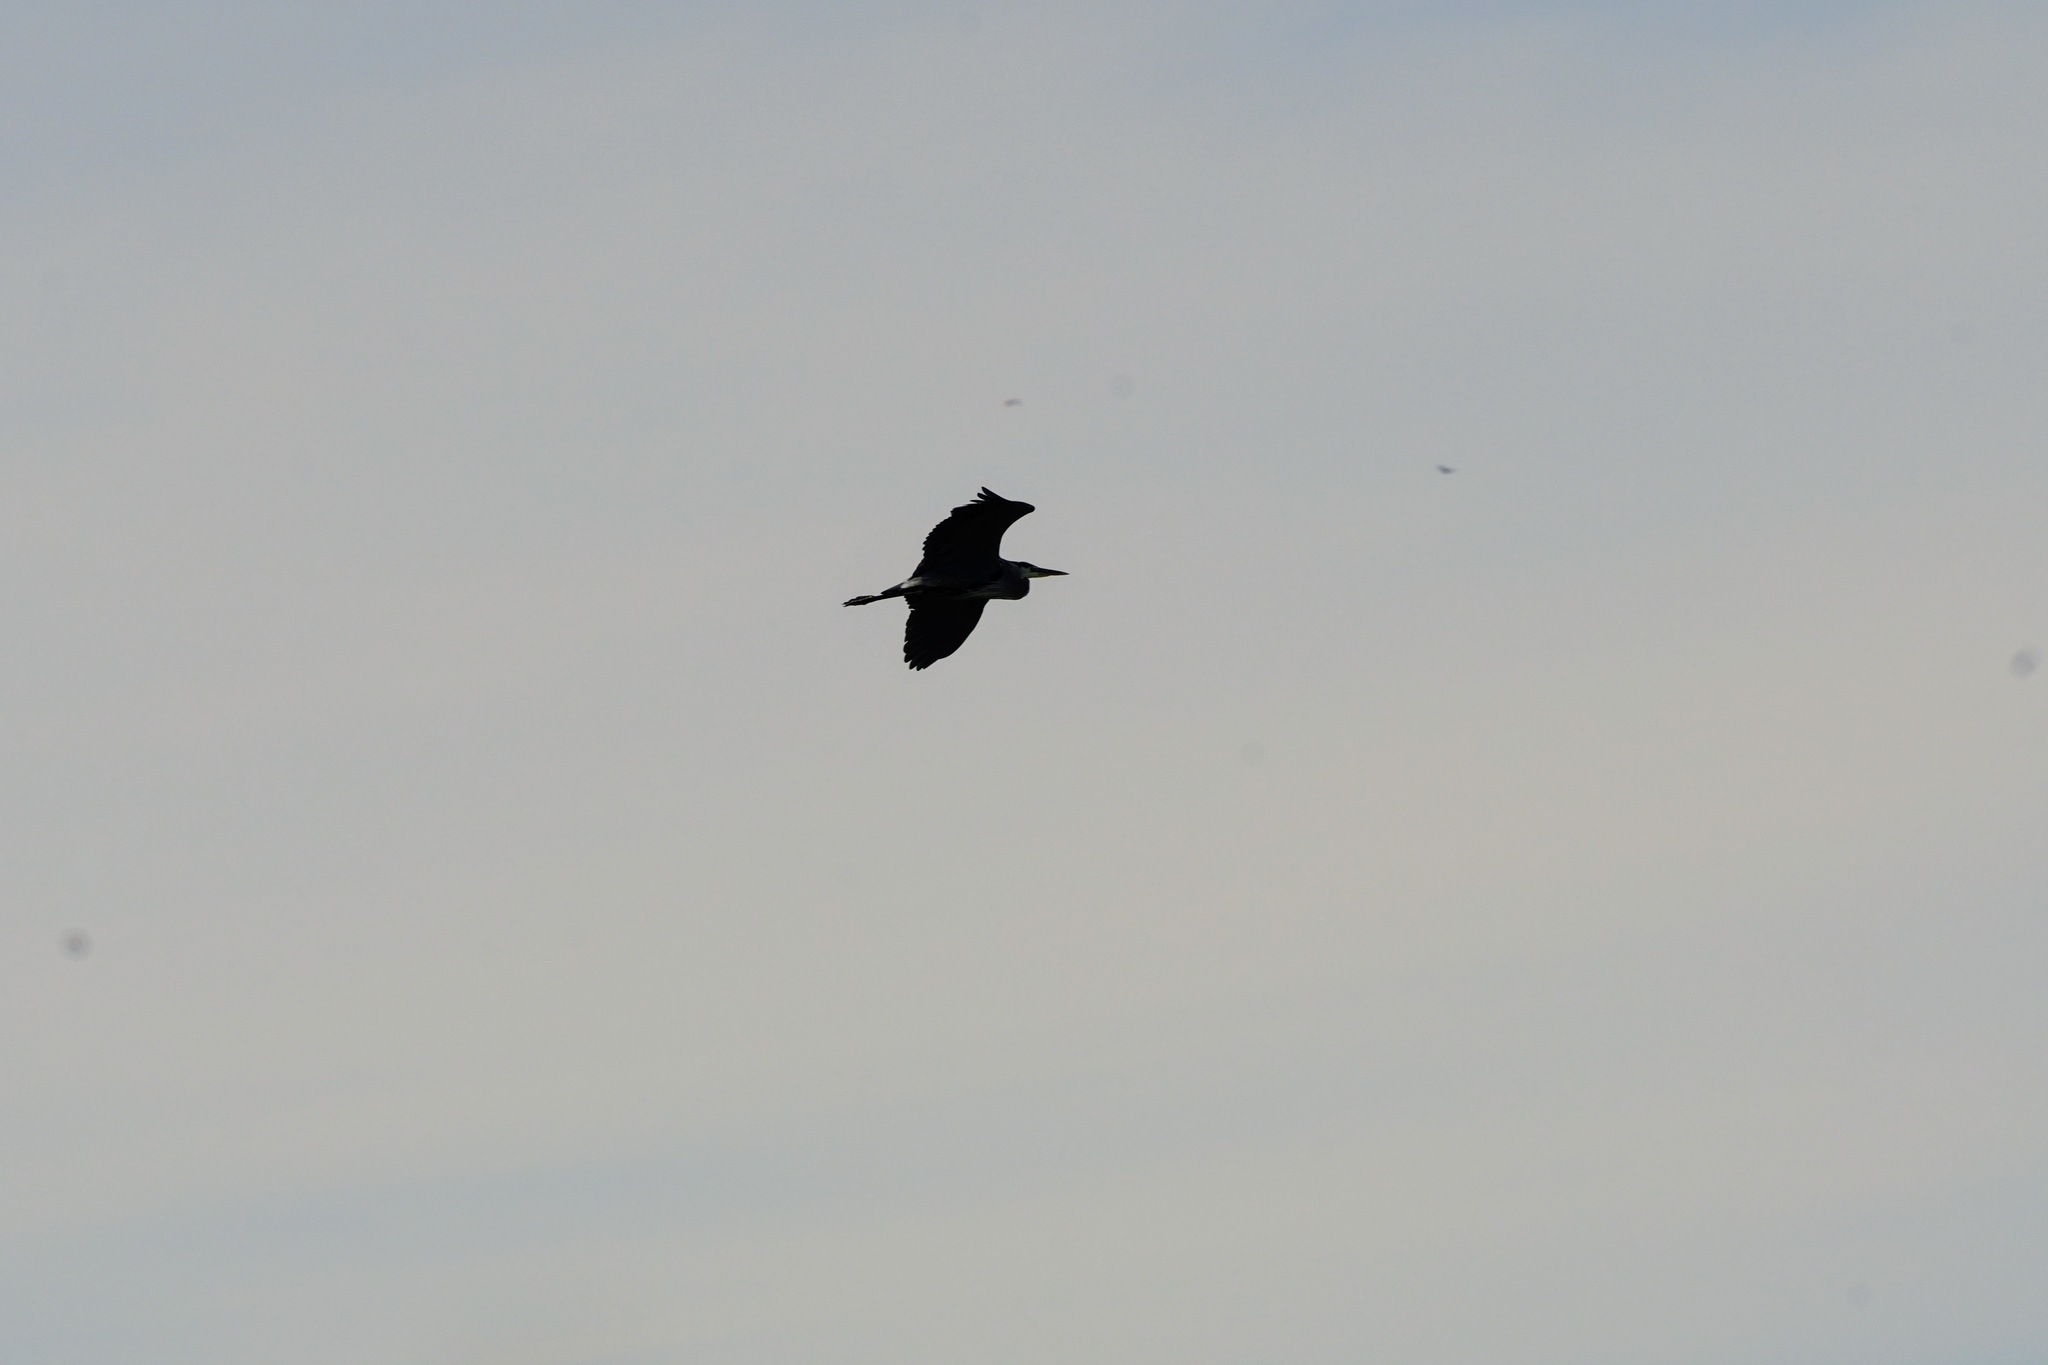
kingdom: Animalia
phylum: Chordata
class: Aves
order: Pelecaniformes
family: Ardeidae
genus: Ardea
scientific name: Ardea herodias
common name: Great blue heron
